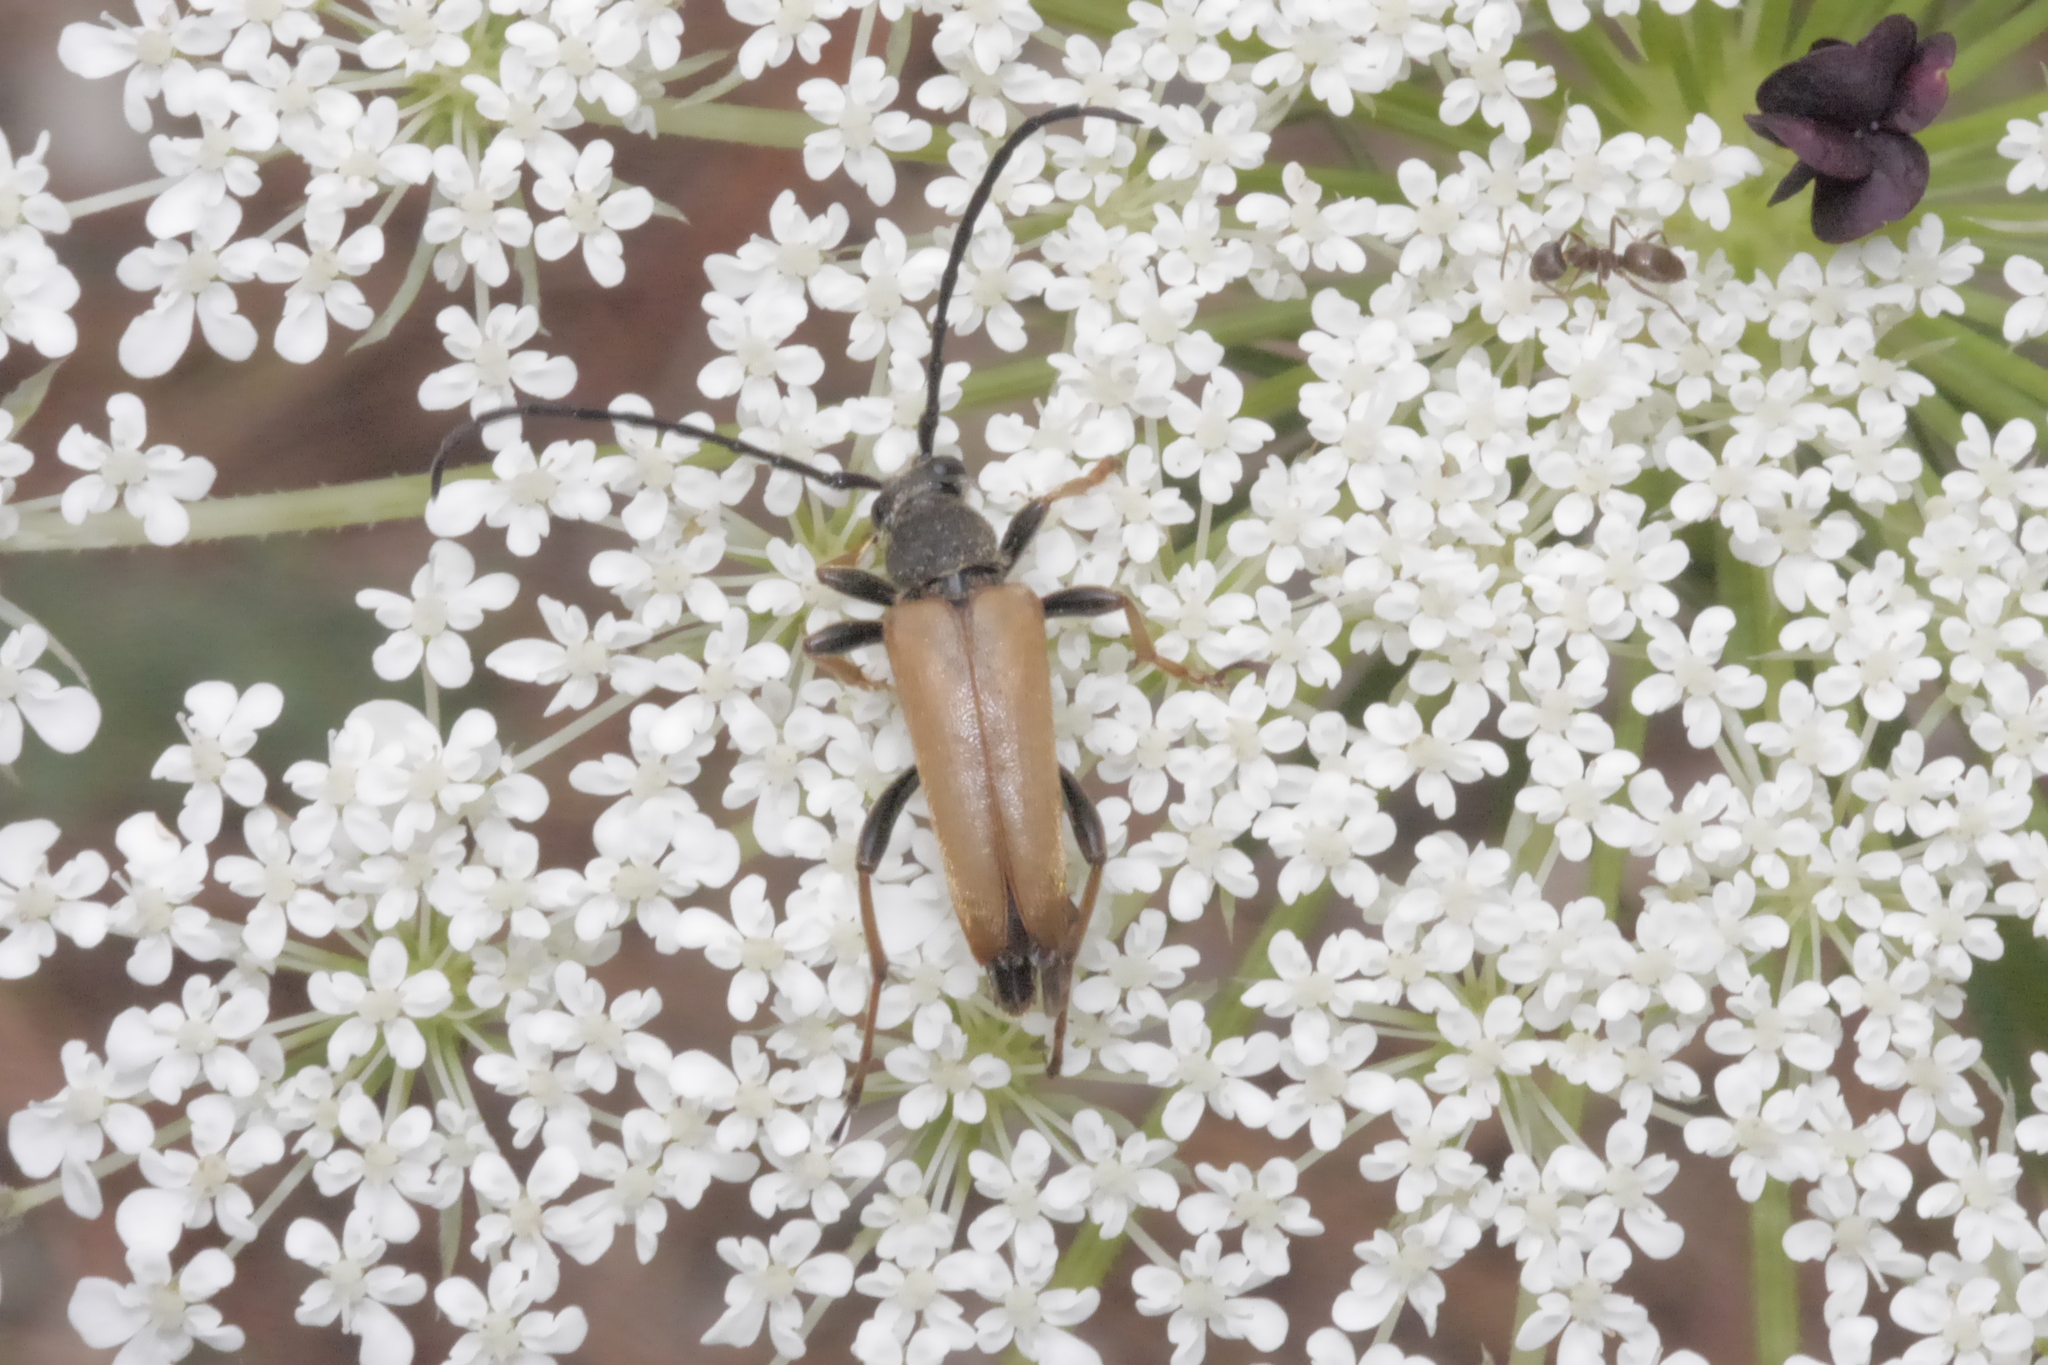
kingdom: Animalia
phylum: Arthropoda
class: Insecta
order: Coleoptera
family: Cerambycidae
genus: Stictoleptura
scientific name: Stictoleptura rubra
